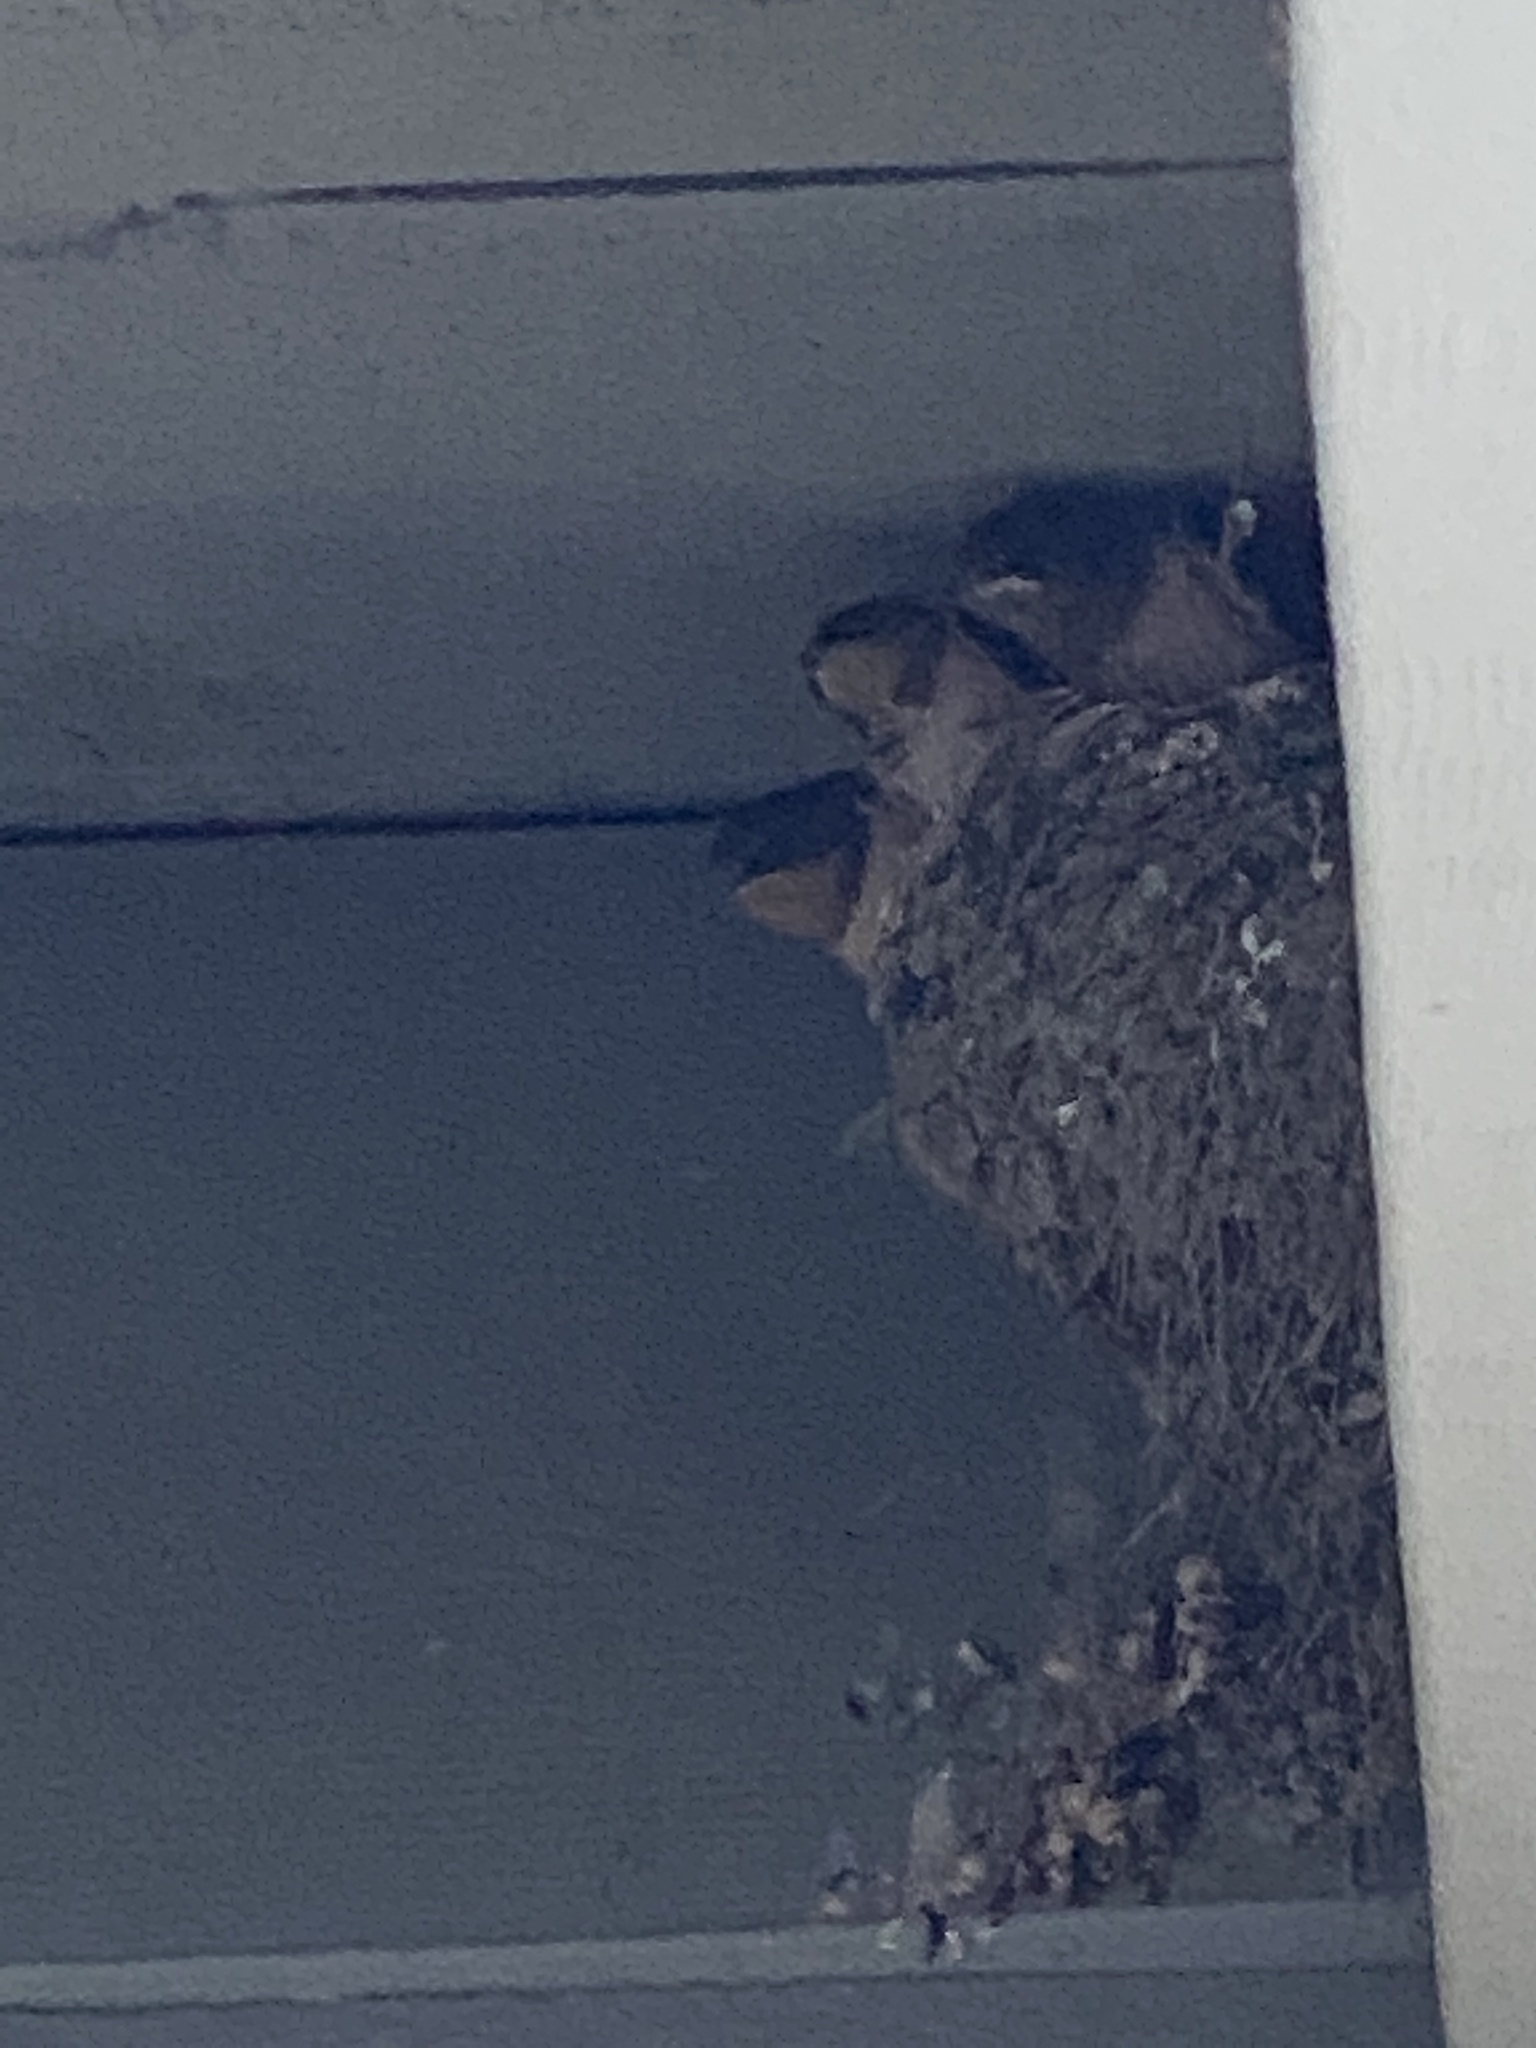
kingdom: Animalia
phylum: Chordata
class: Aves
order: Passeriformes
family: Hirundinidae
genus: Hirundo
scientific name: Hirundo rustica
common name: Barn swallow
